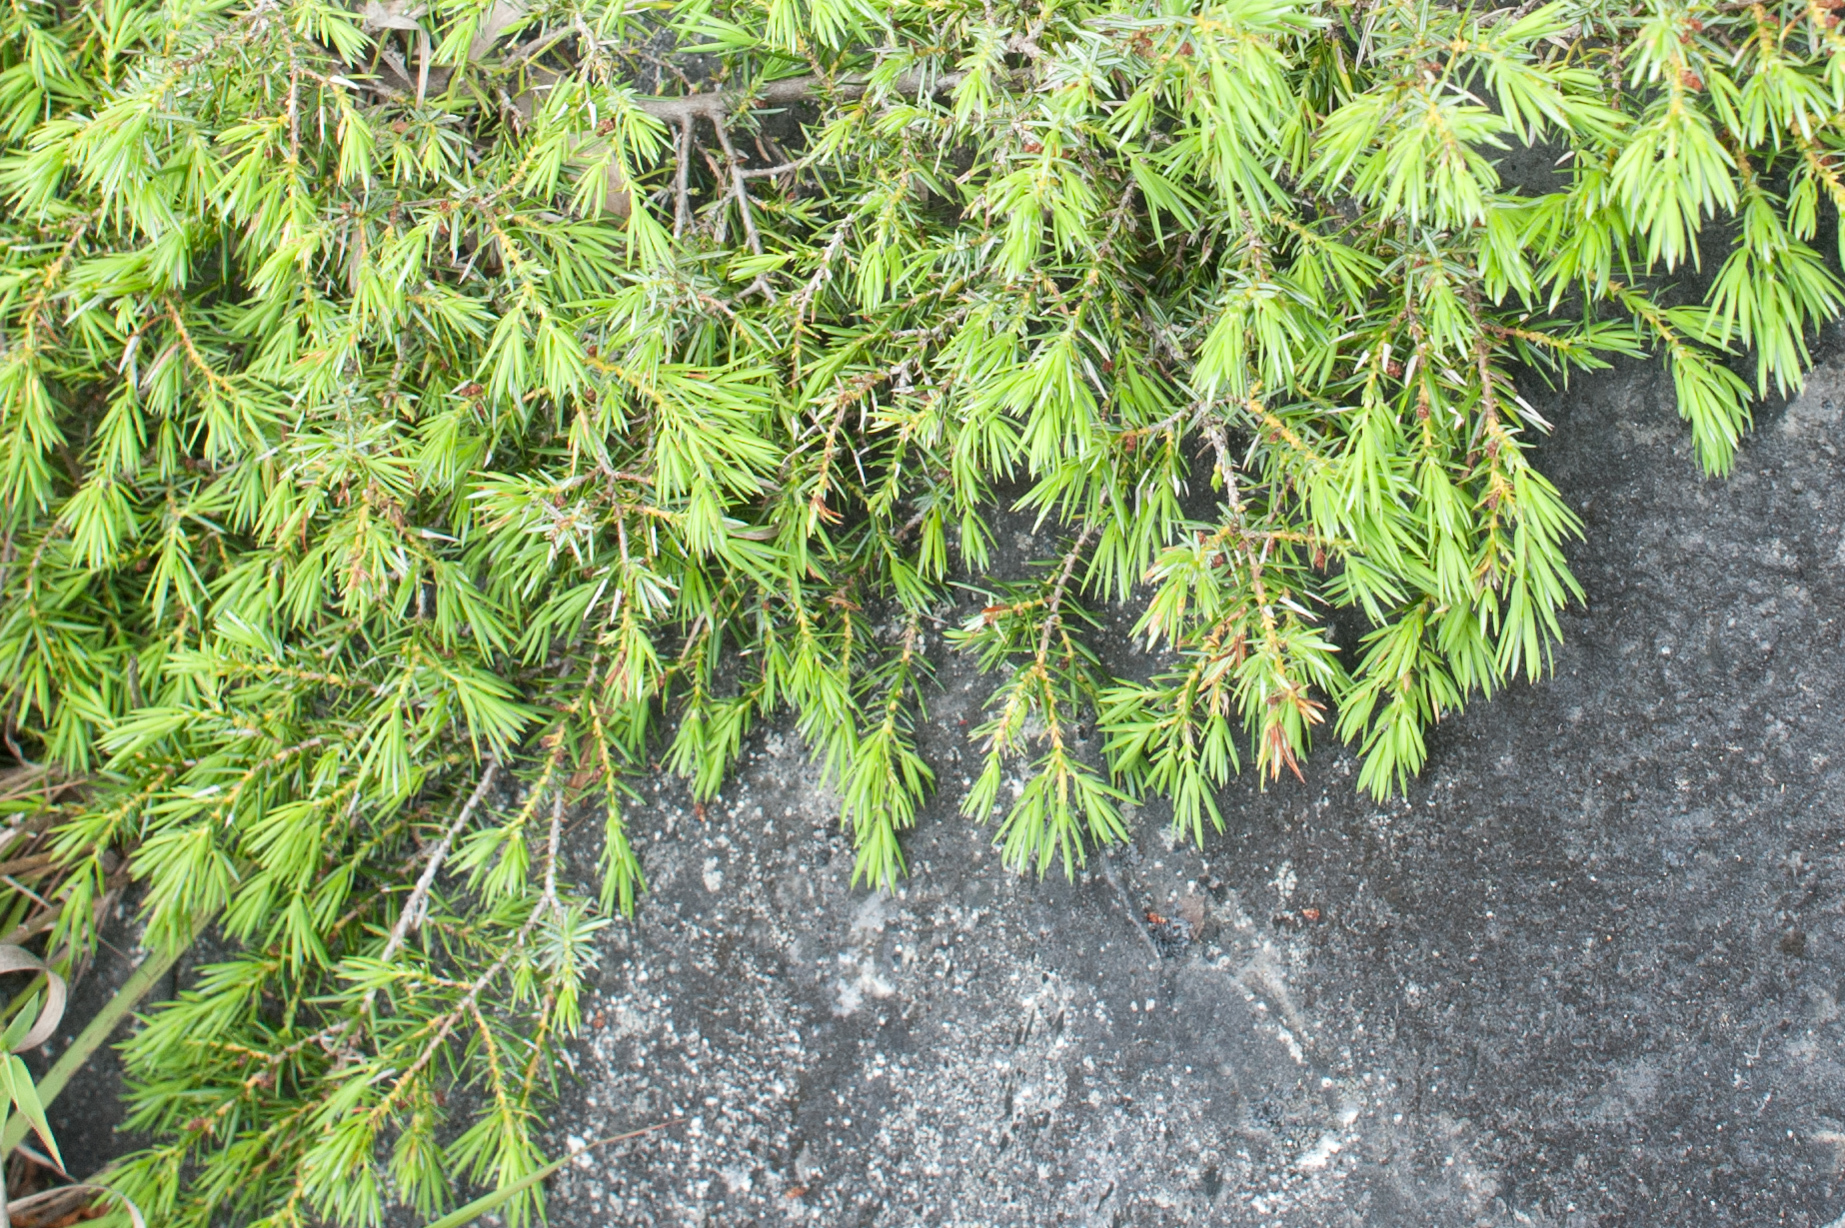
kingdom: Plantae
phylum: Tracheophyta
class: Pinopsida
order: Pinales
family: Cupressaceae
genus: Juniperus
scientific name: Juniperus formosana
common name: Formosan juniper
